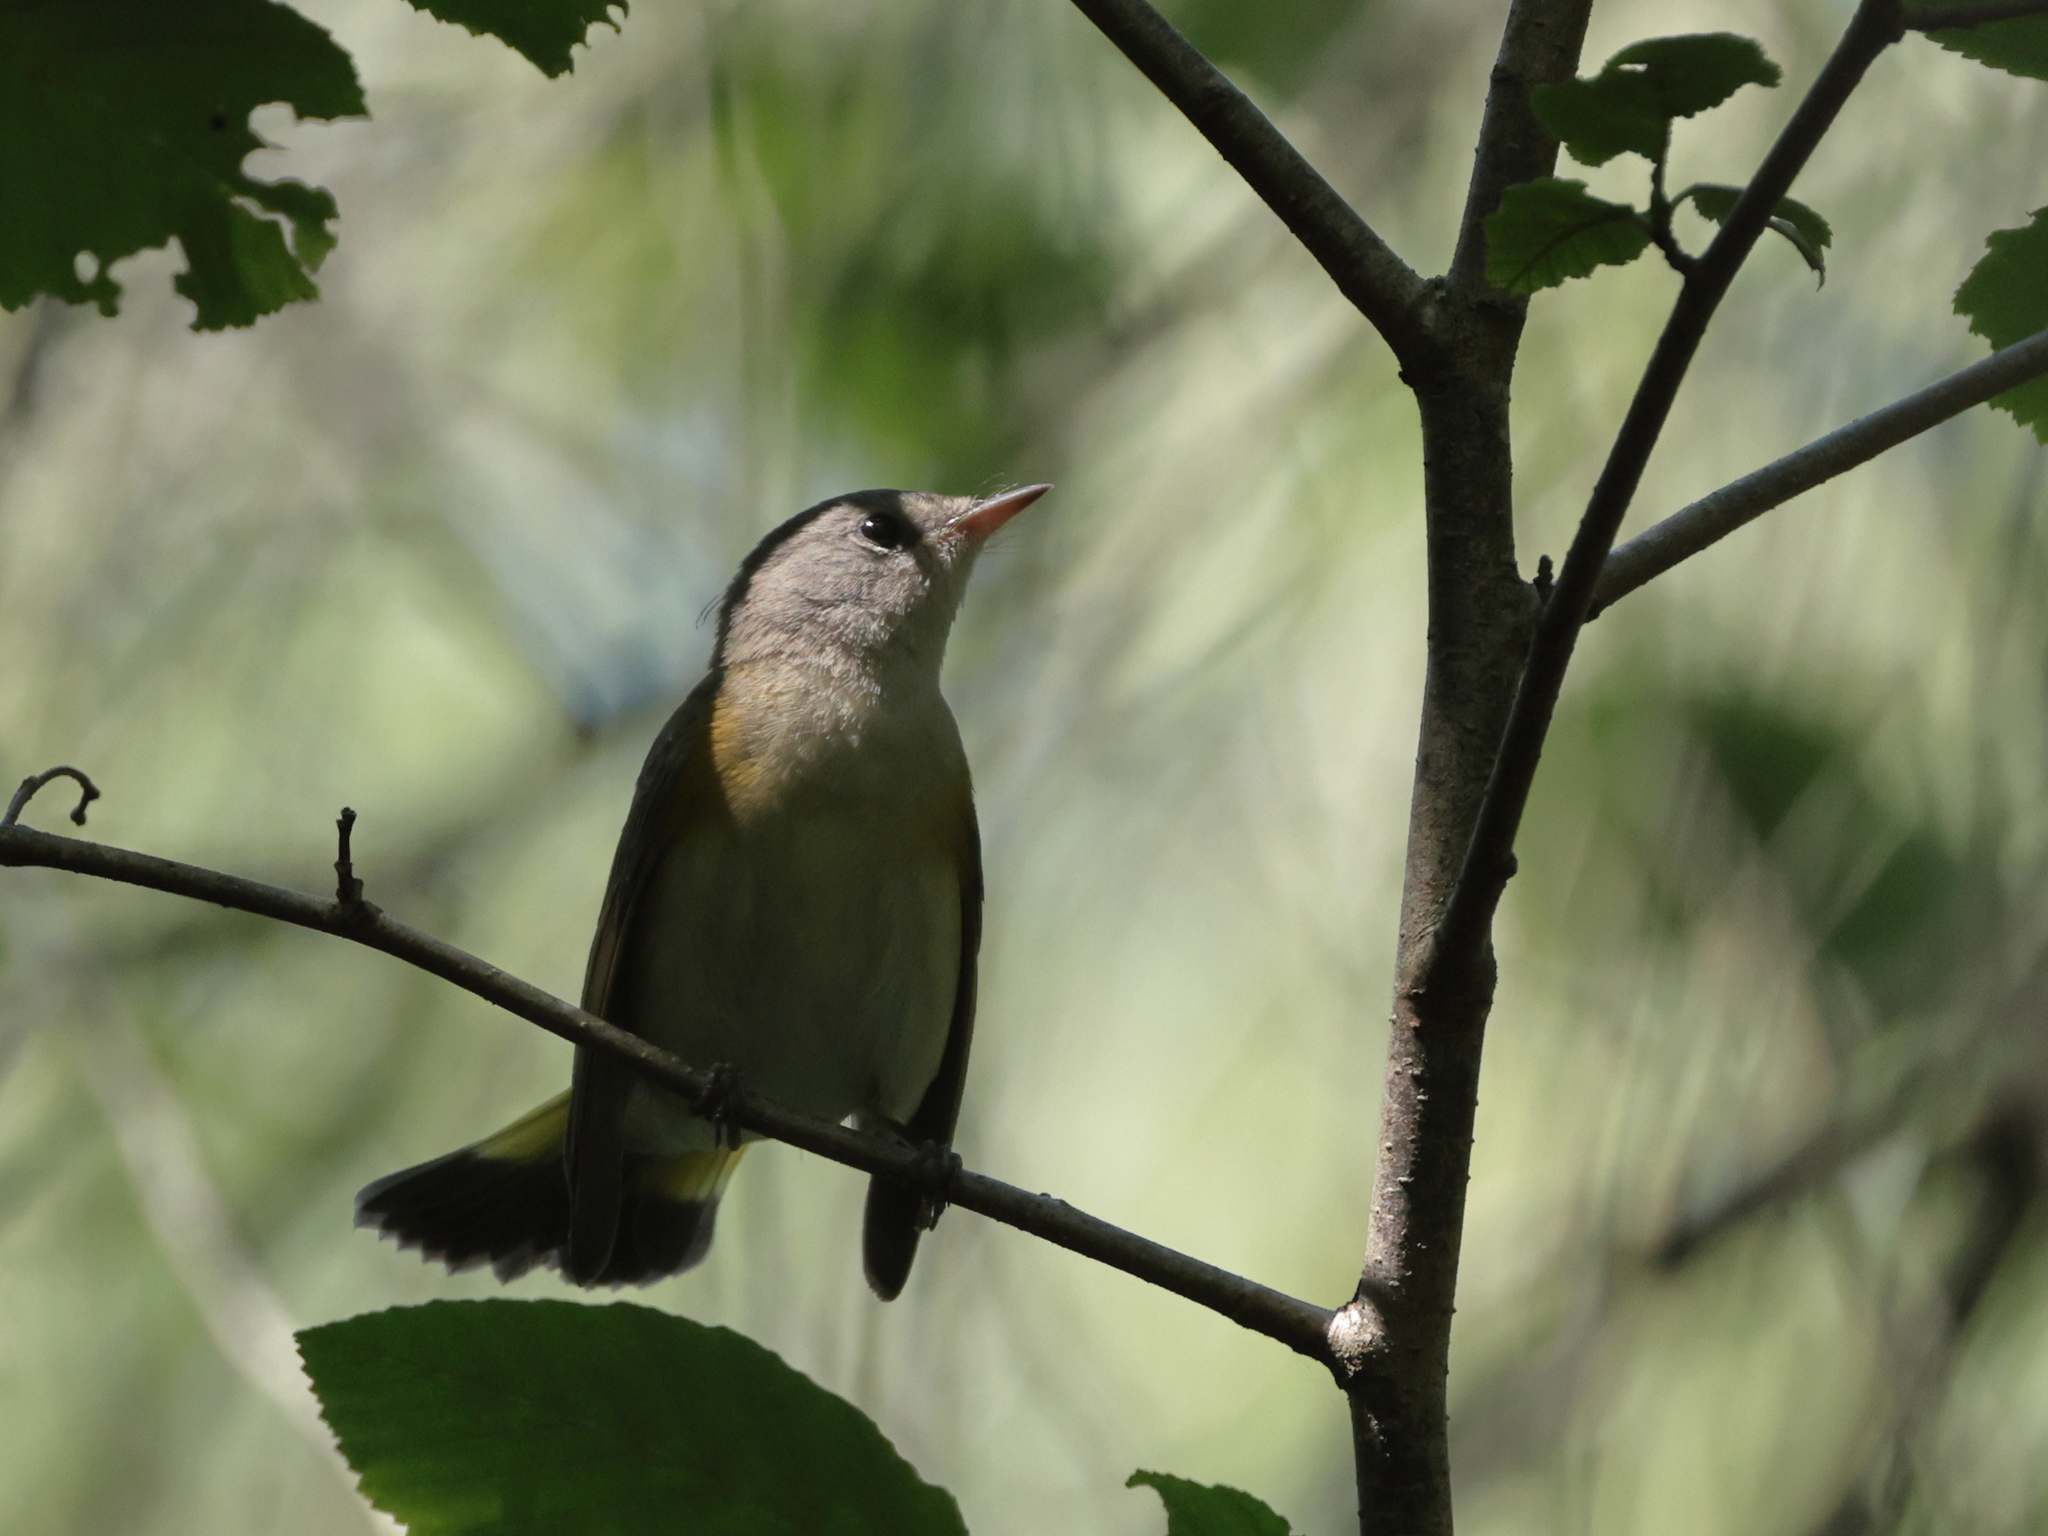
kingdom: Animalia
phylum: Chordata
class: Aves
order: Passeriformes
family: Parulidae
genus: Setophaga
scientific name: Setophaga ruticilla
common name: American redstart
